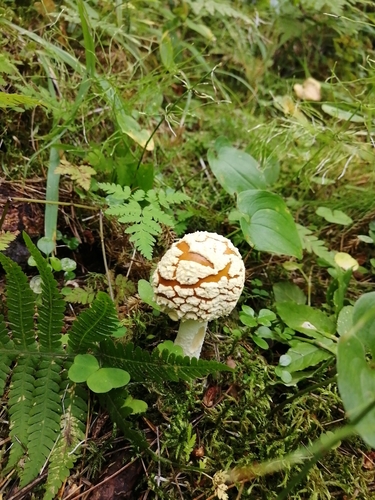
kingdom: Fungi
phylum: Basidiomycota
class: Agaricomycetes
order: Agaricales
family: Amanitaceae
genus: Amanita
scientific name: Amanita regalis
